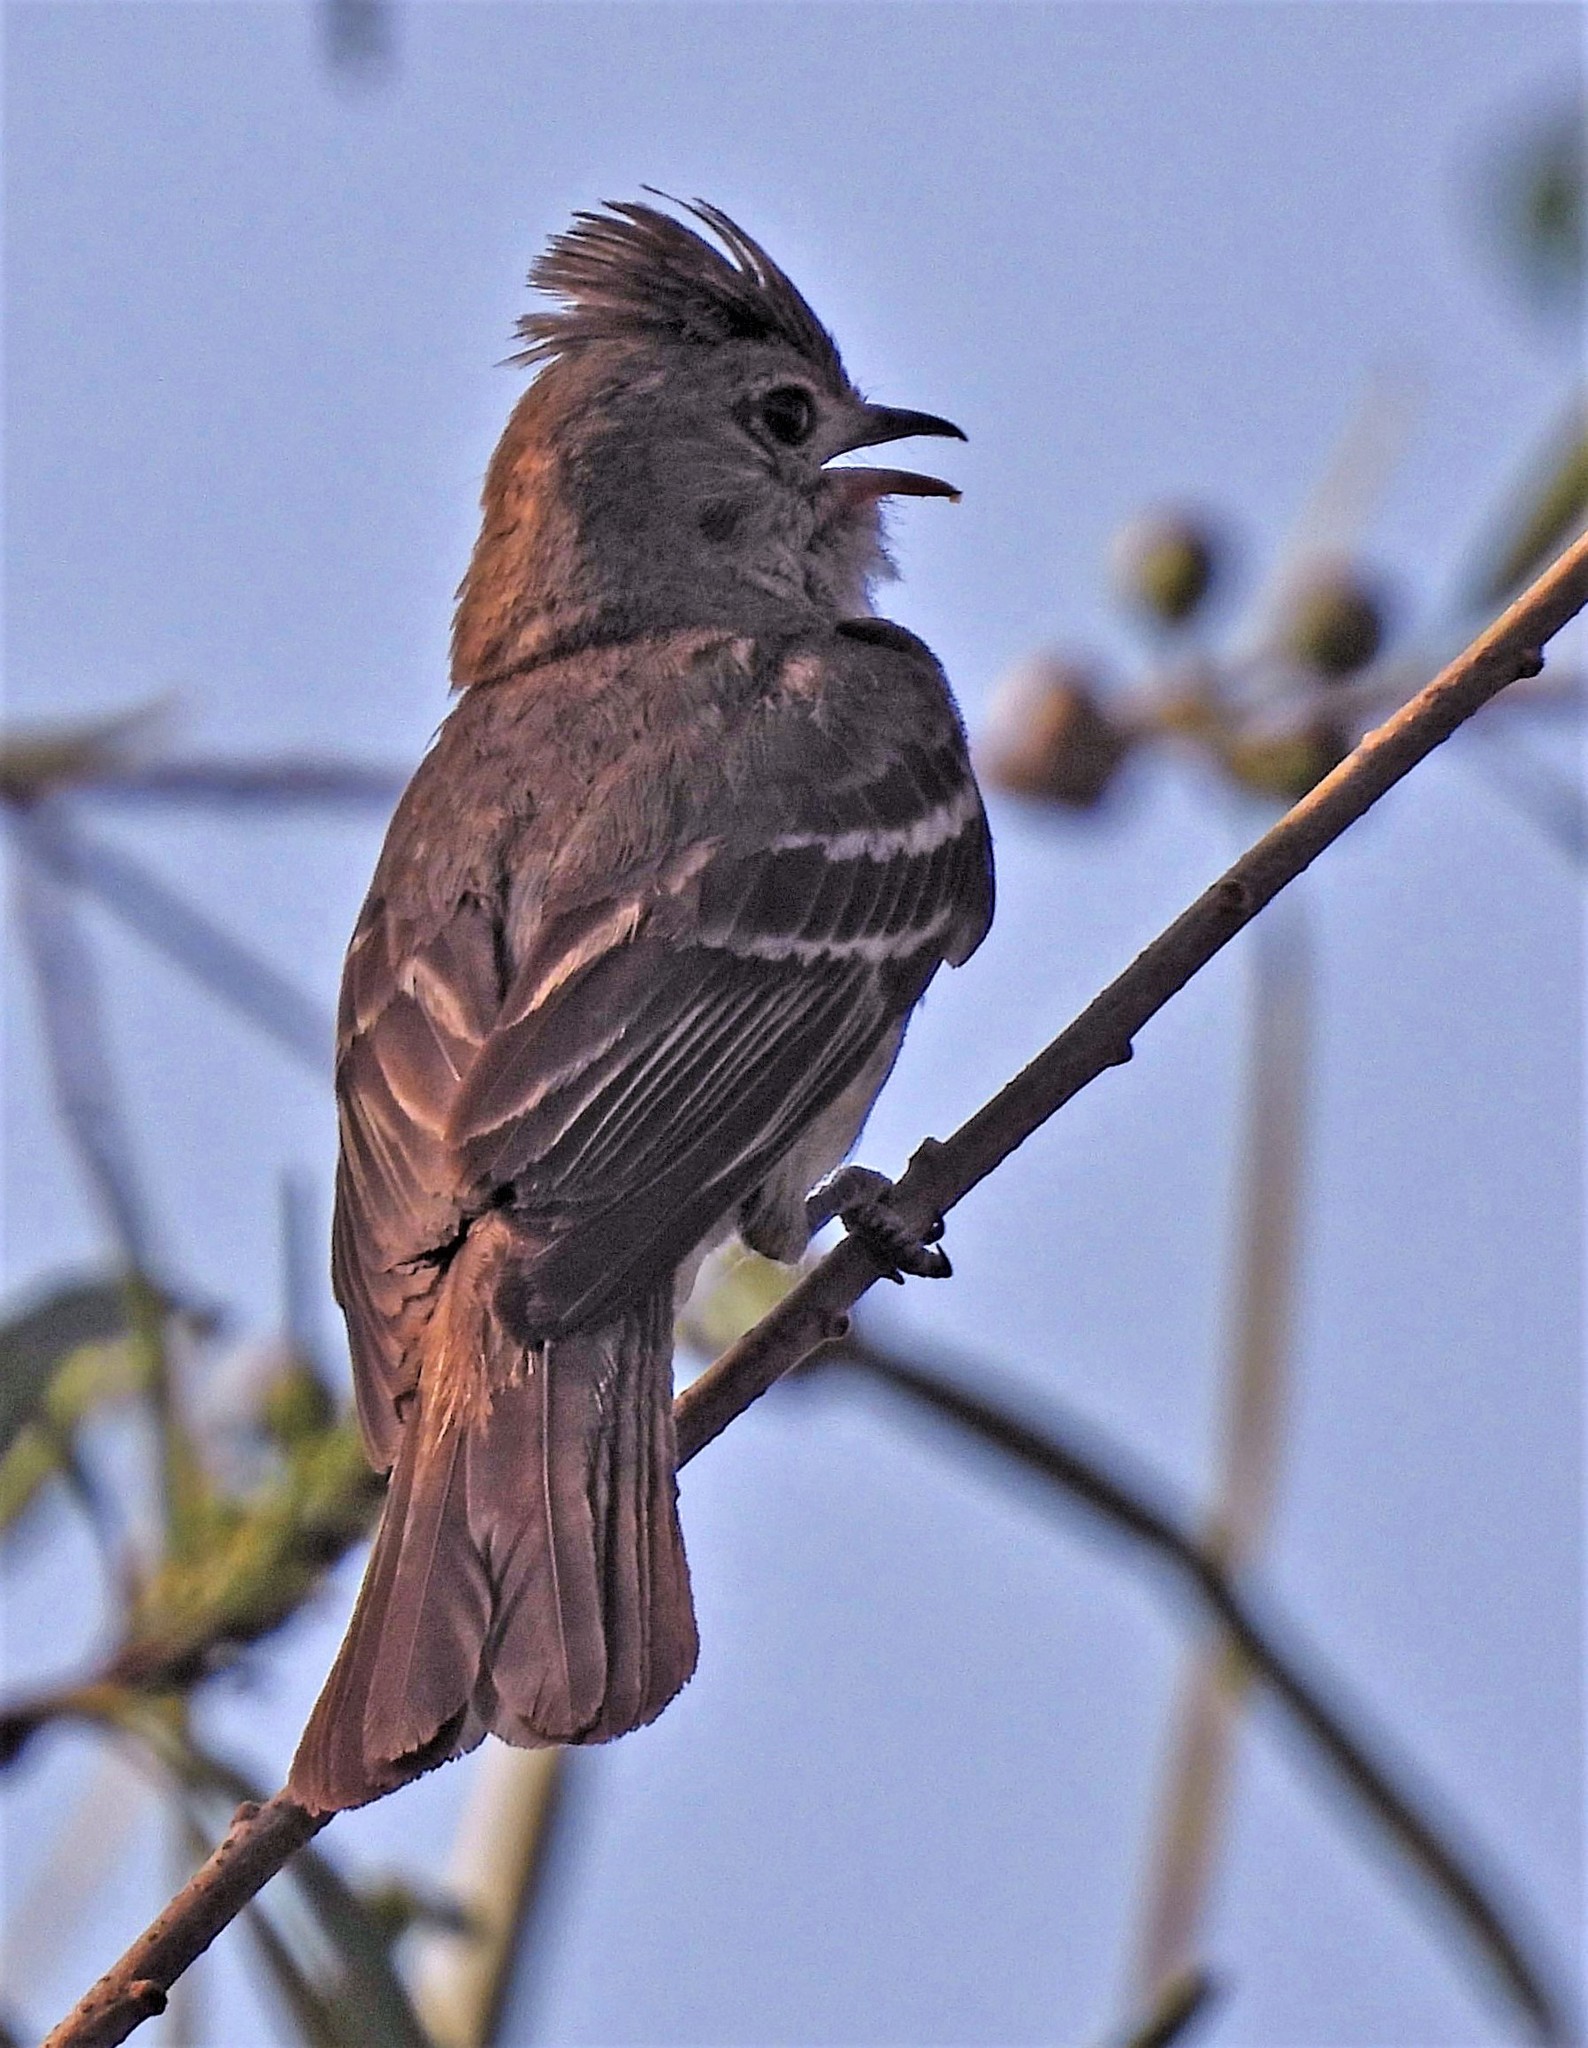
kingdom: Animalia
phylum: Chordata
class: Aves
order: Passeriformes
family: Tyrannidae
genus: Elaenia
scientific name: Elaenia flavogaster
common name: Yellow-bellied elaenia
